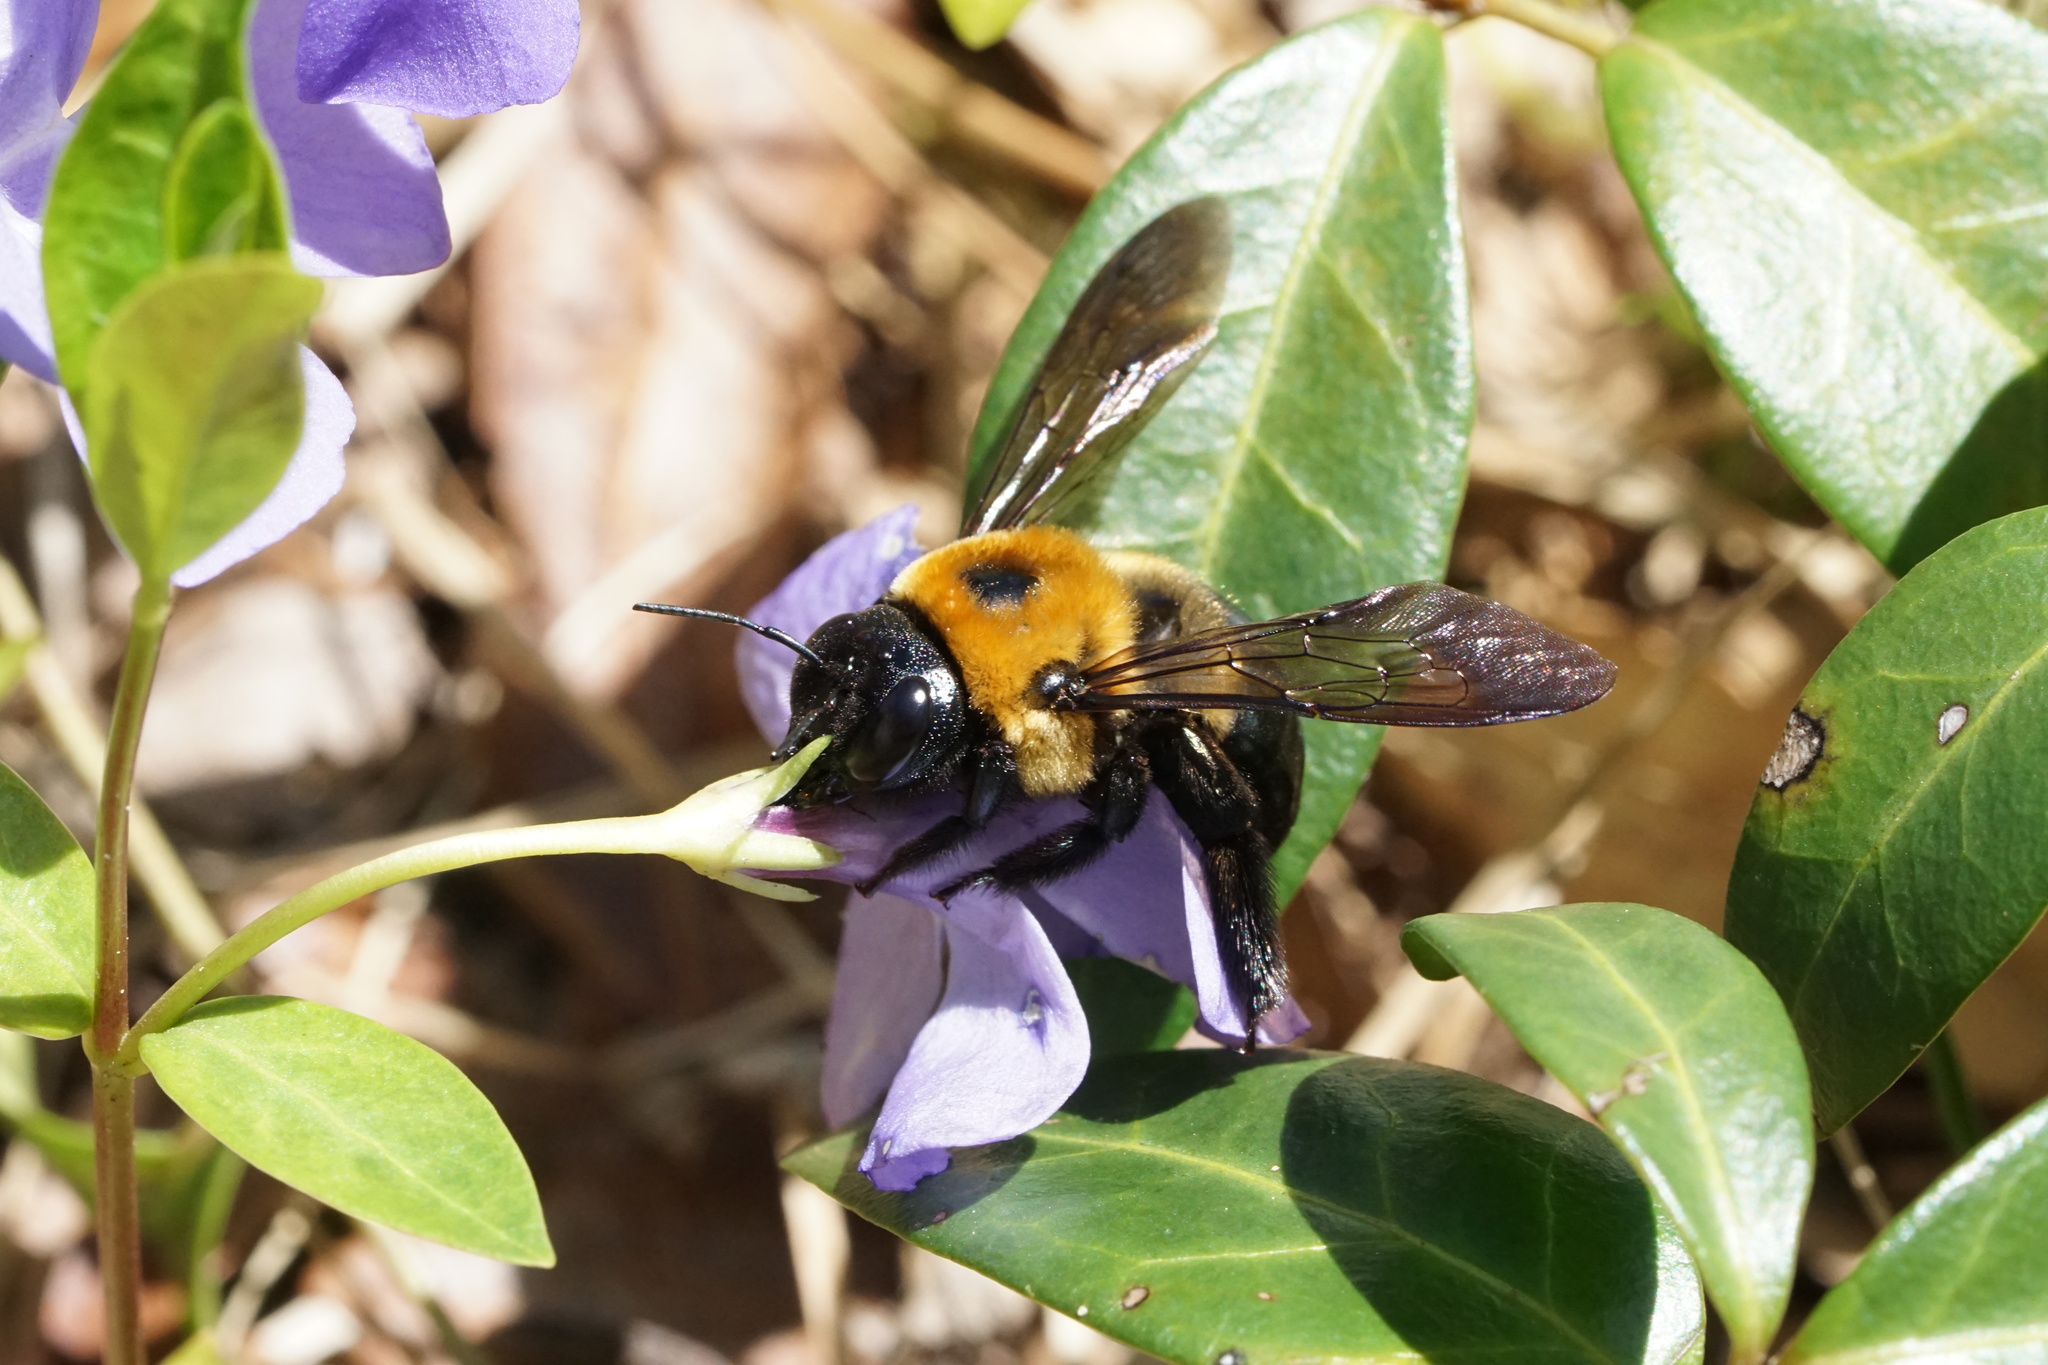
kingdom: Animalia
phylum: Arthropoda
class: Insecta
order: Hymenoptera
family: Apidae
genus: Xylocopa
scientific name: Xylocopa virginica
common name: Carpenter bee
